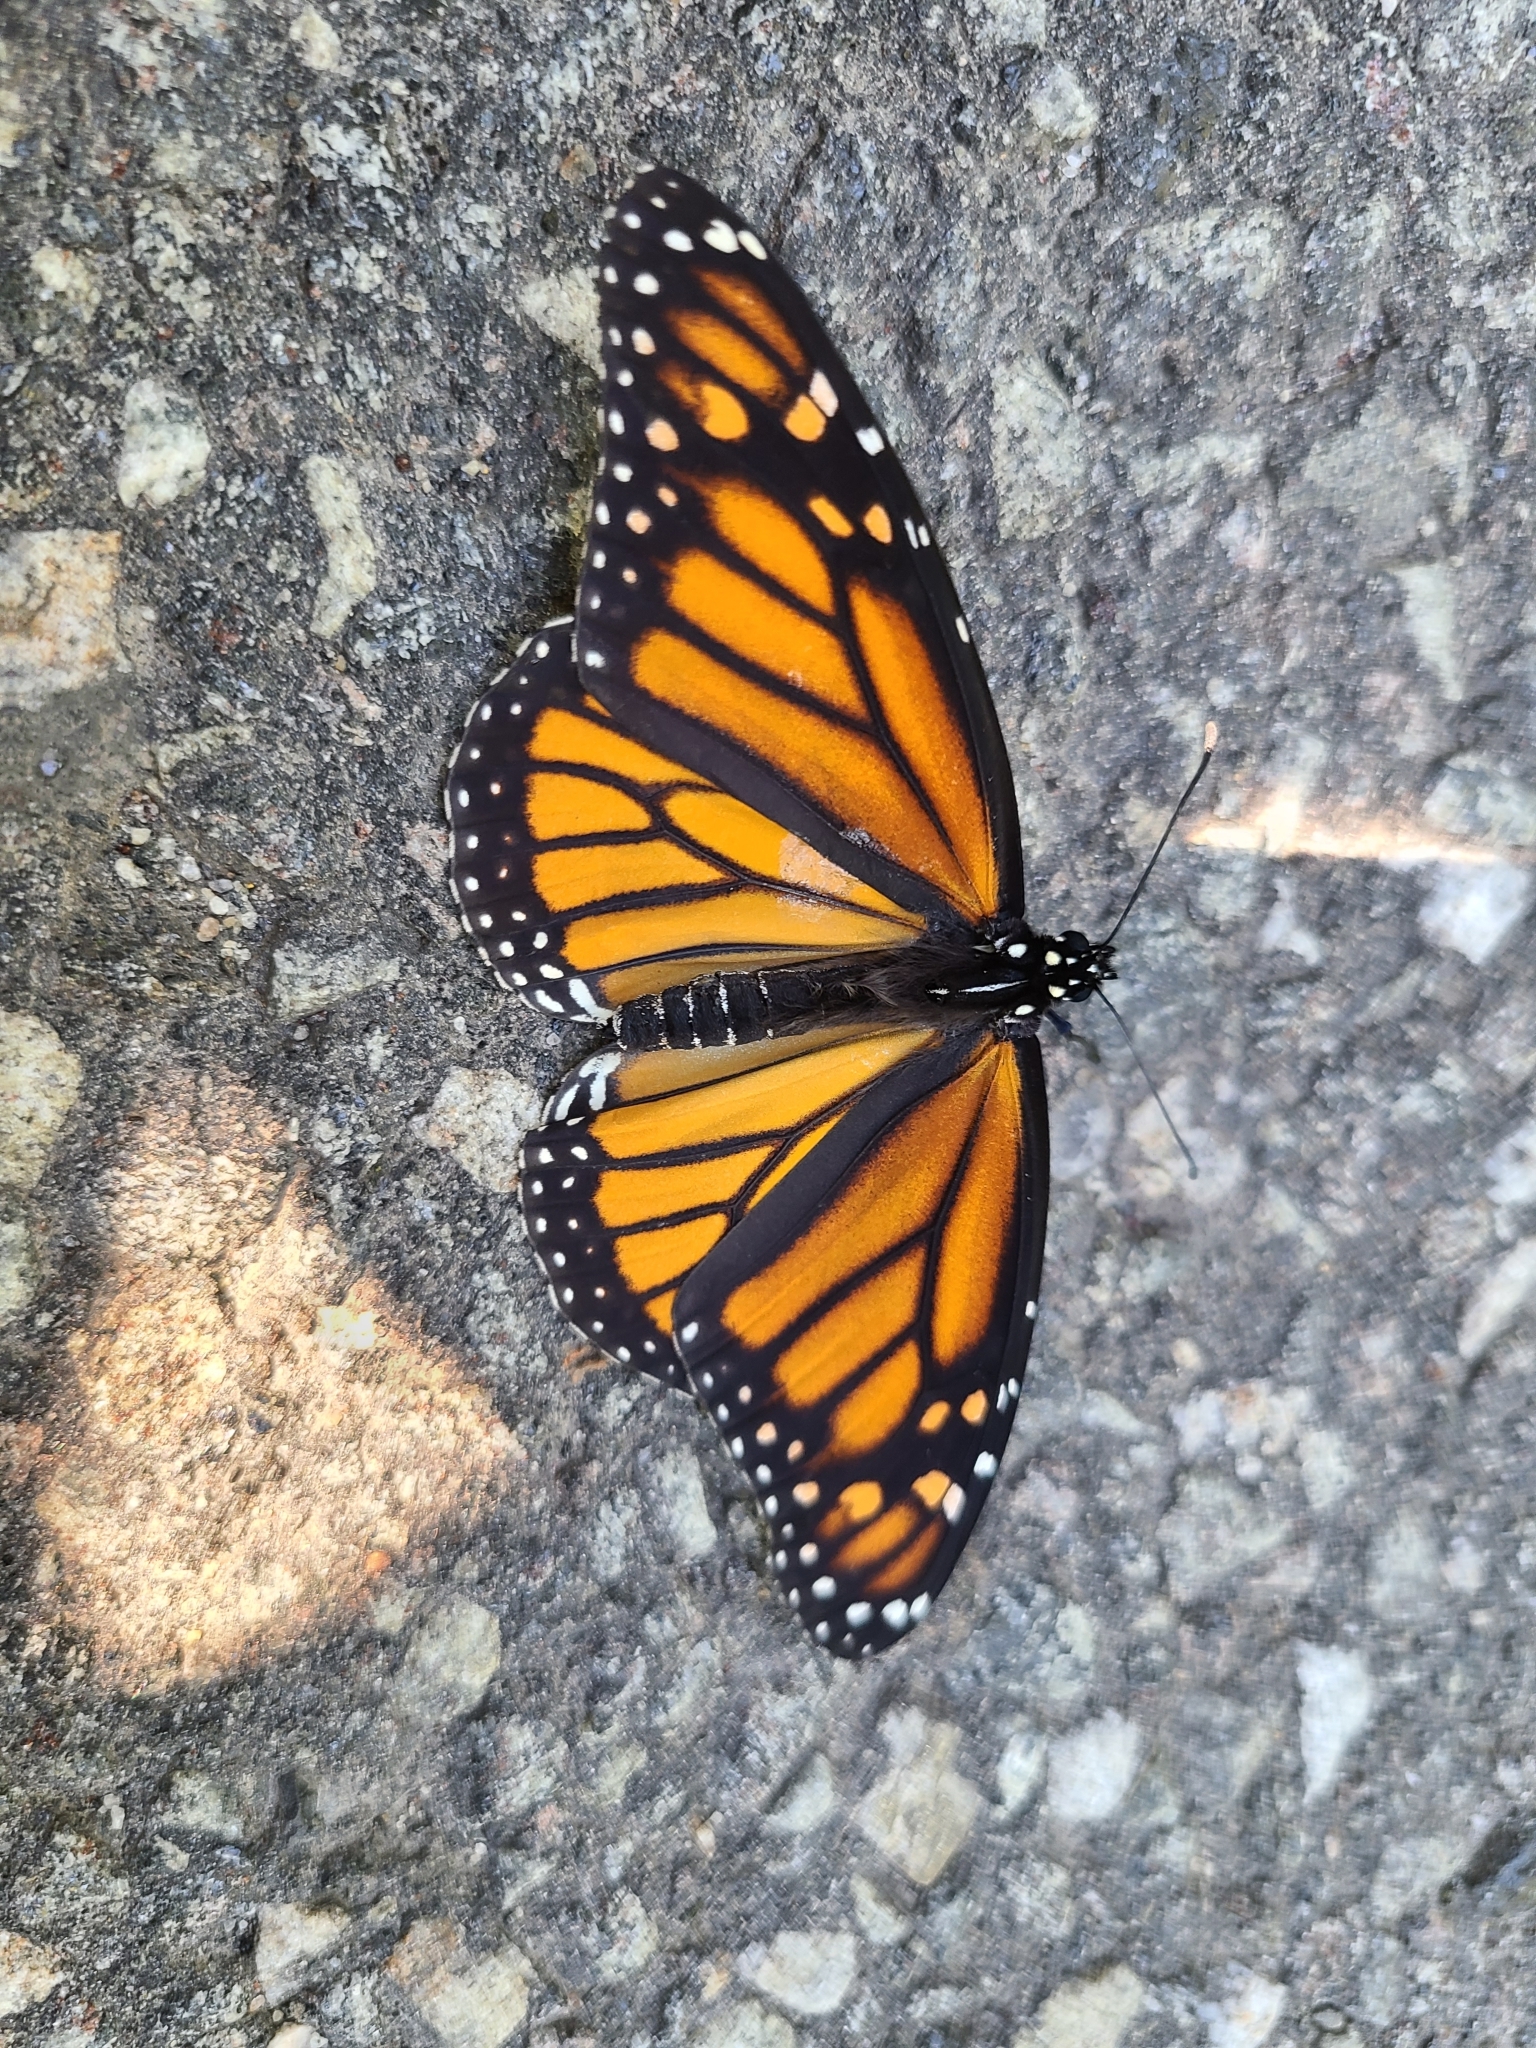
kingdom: Animalia
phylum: Arthropoda
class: Insecta
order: Lepidoptera
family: Nymphalidae
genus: Danaus
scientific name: Danaus plexippus
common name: Monarch
